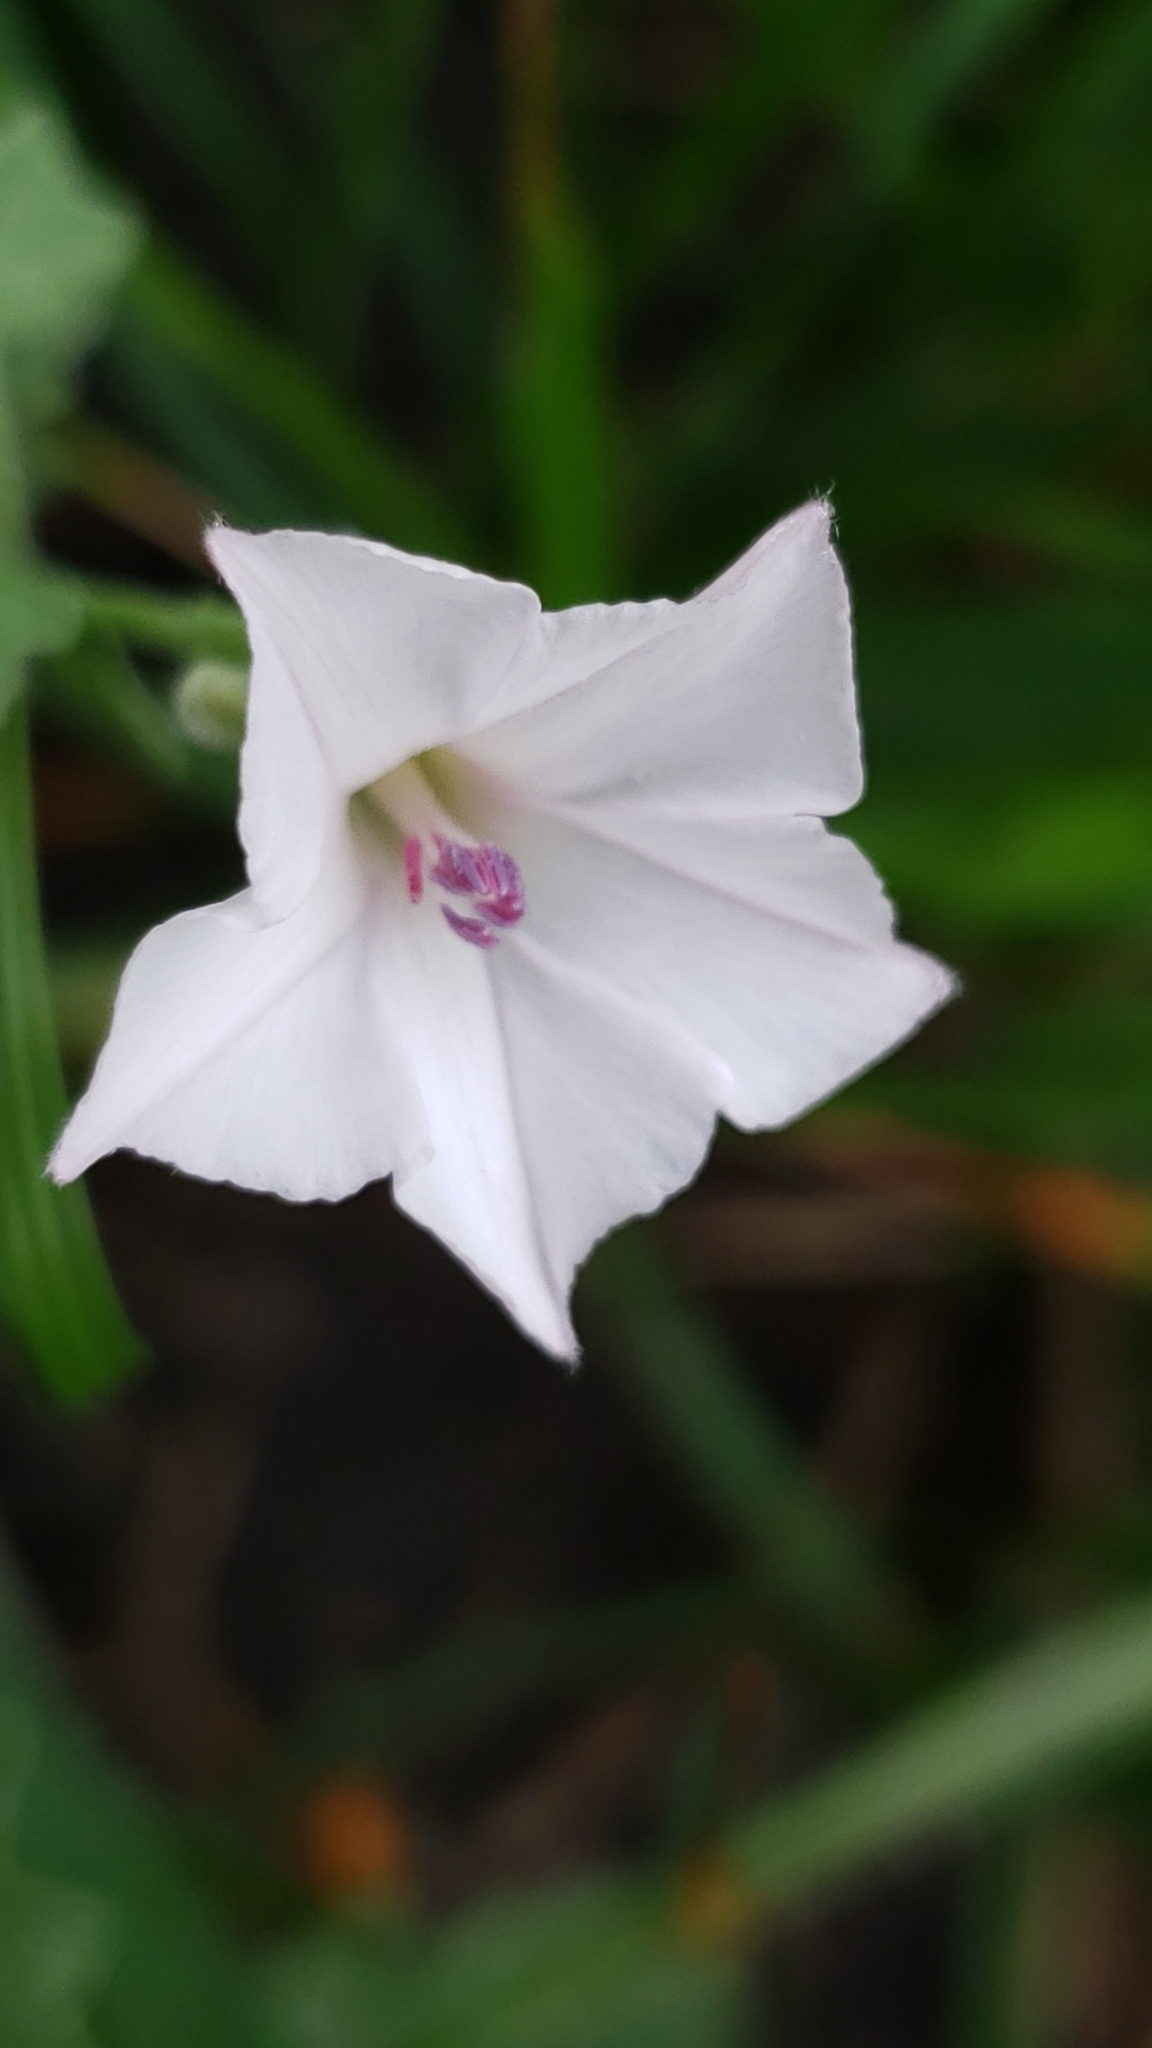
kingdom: Plantae
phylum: Tracheophyta
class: Magnoliopsida
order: Solanales
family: Convolvulaceae
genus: Convolvulus
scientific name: Convolvulus equitans
